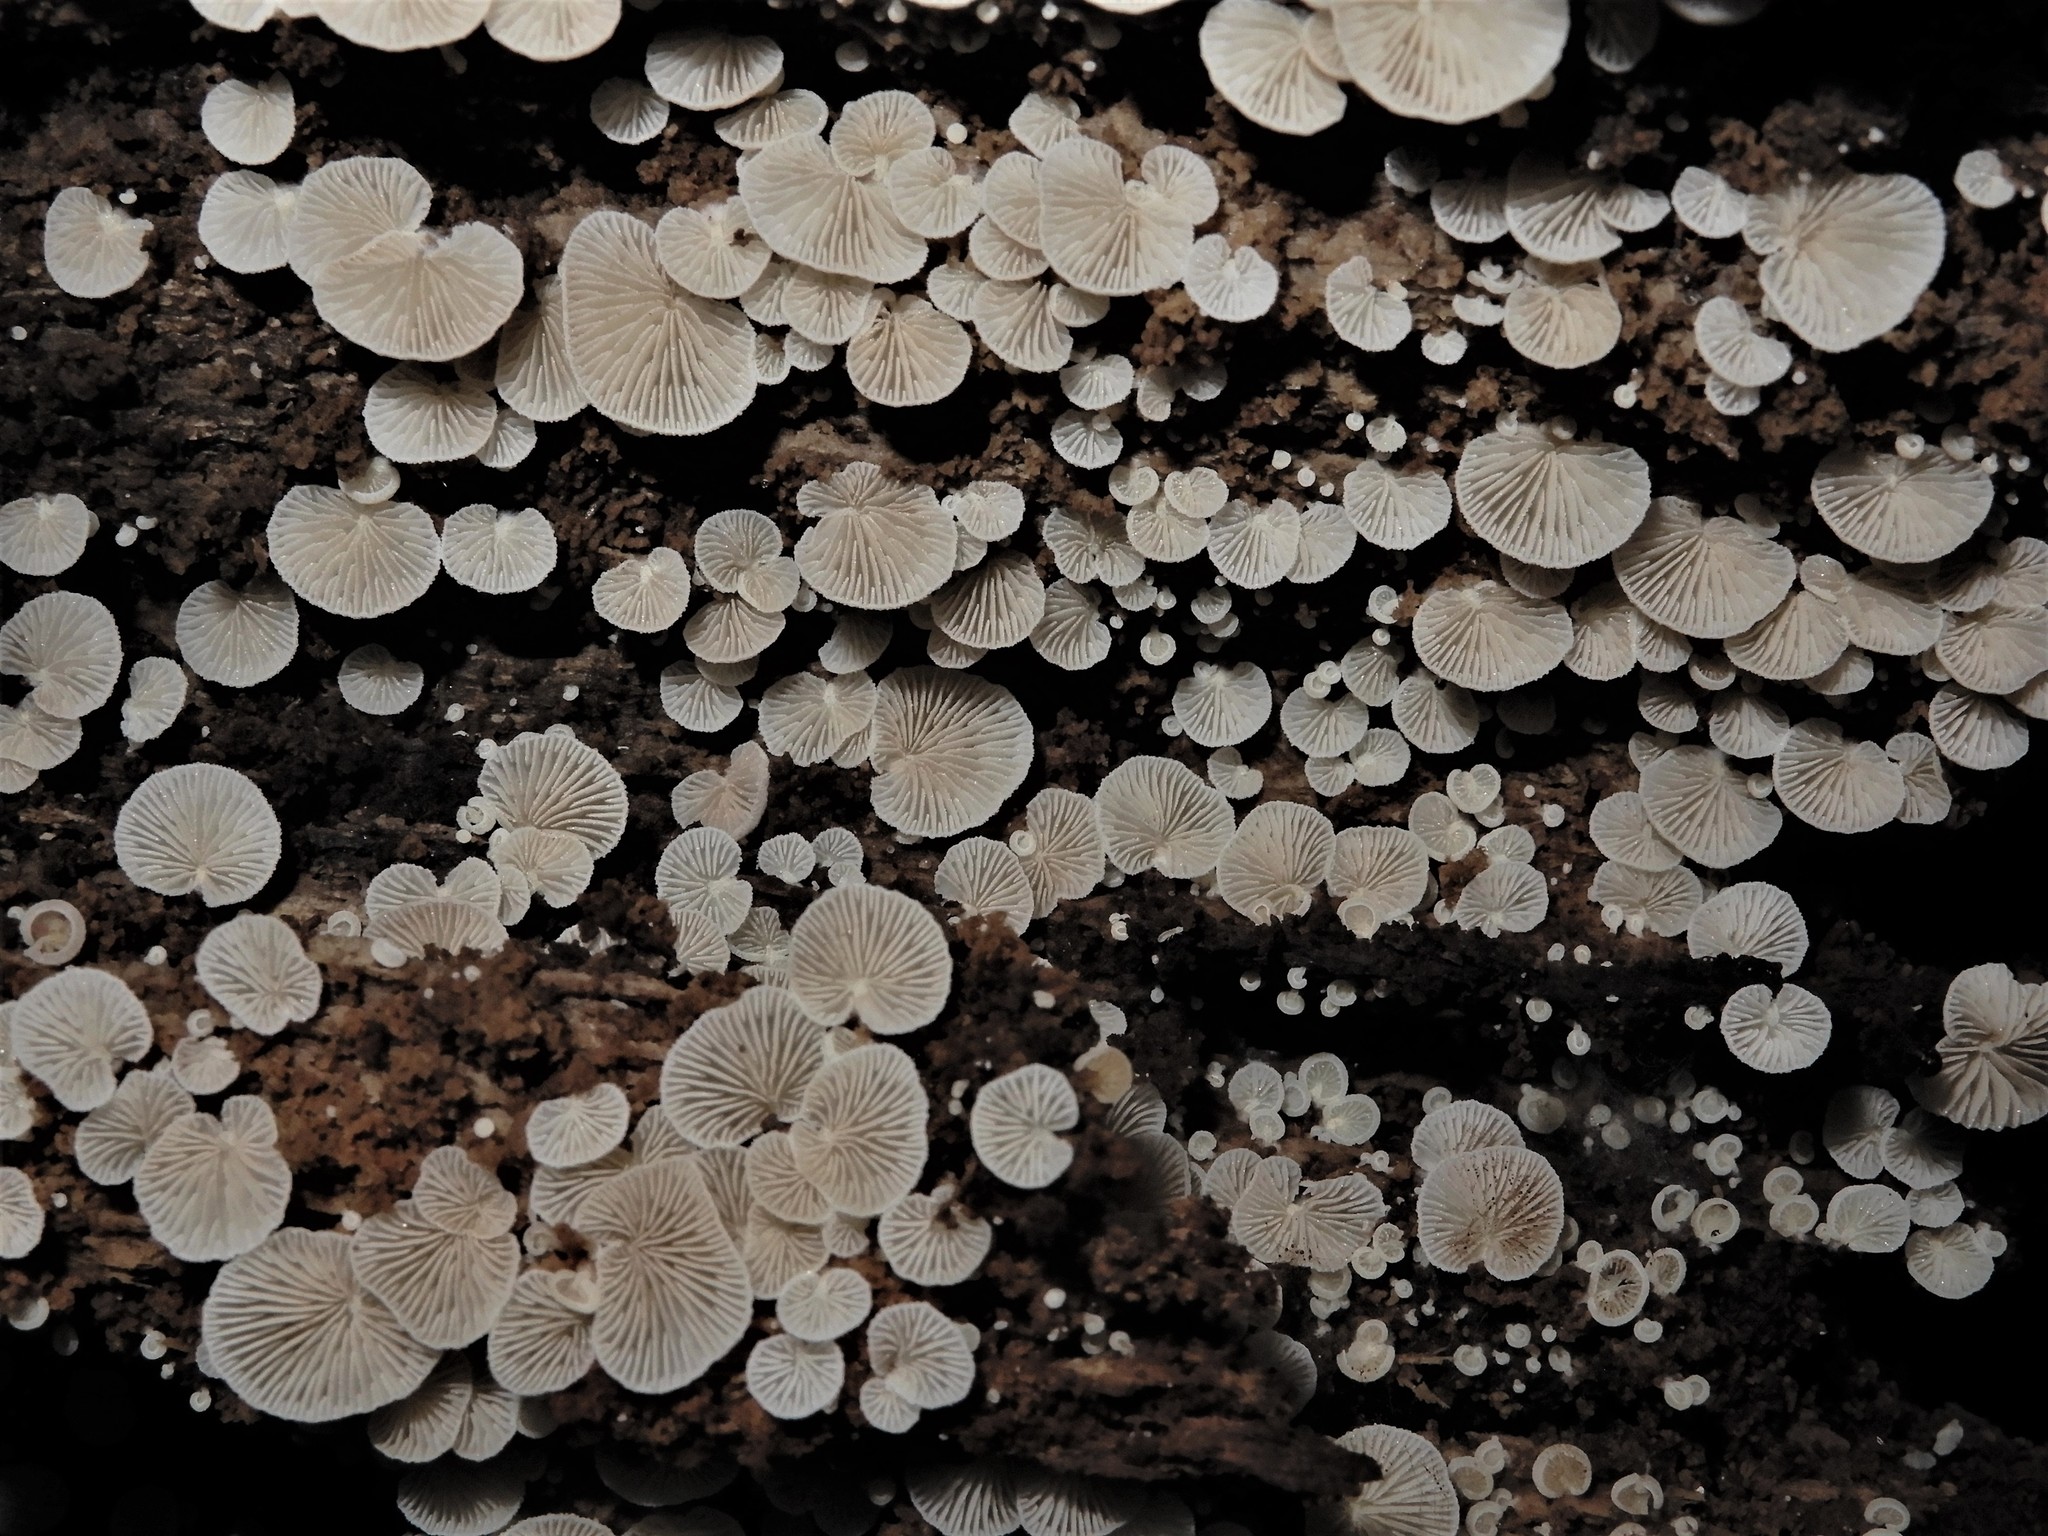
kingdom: Fungi
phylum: Basidiomycota
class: Agaricomycetes
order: Agaricales
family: Crepidotaceae
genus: Crepidotus
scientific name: Crepidotus affinis
